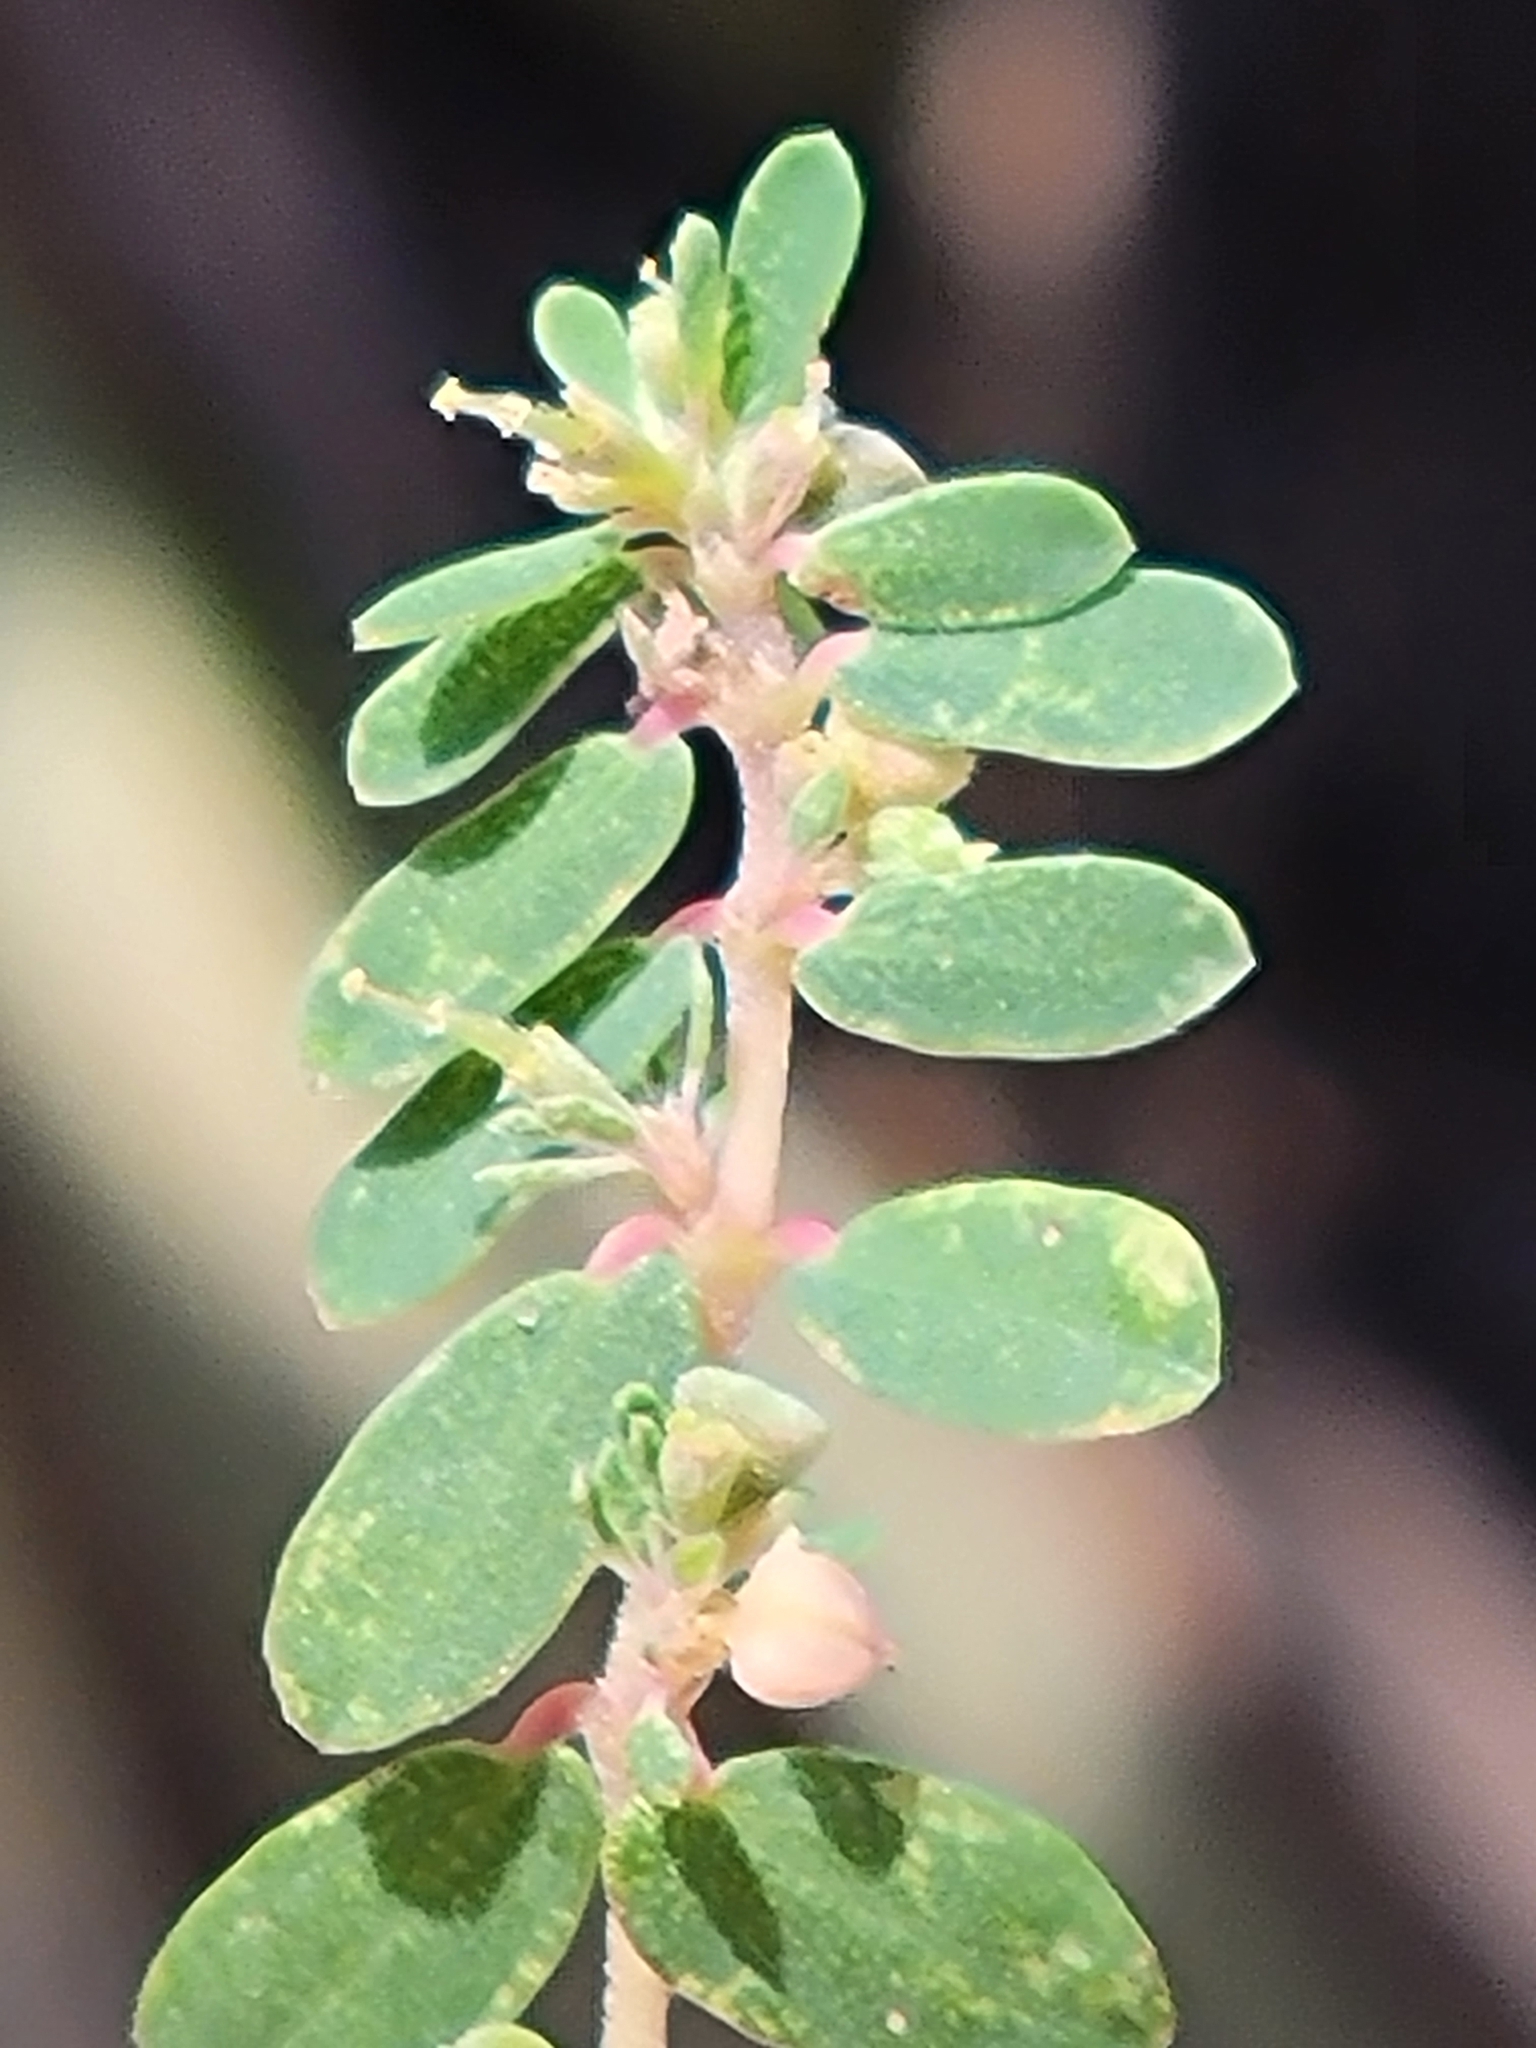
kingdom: Plantae
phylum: Tracheophyta
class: Magnoliopsida
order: Malpighiales
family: Euphorbiaceae
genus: Euphorbia
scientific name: Euphorbia maculata
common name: Spotted spurge
